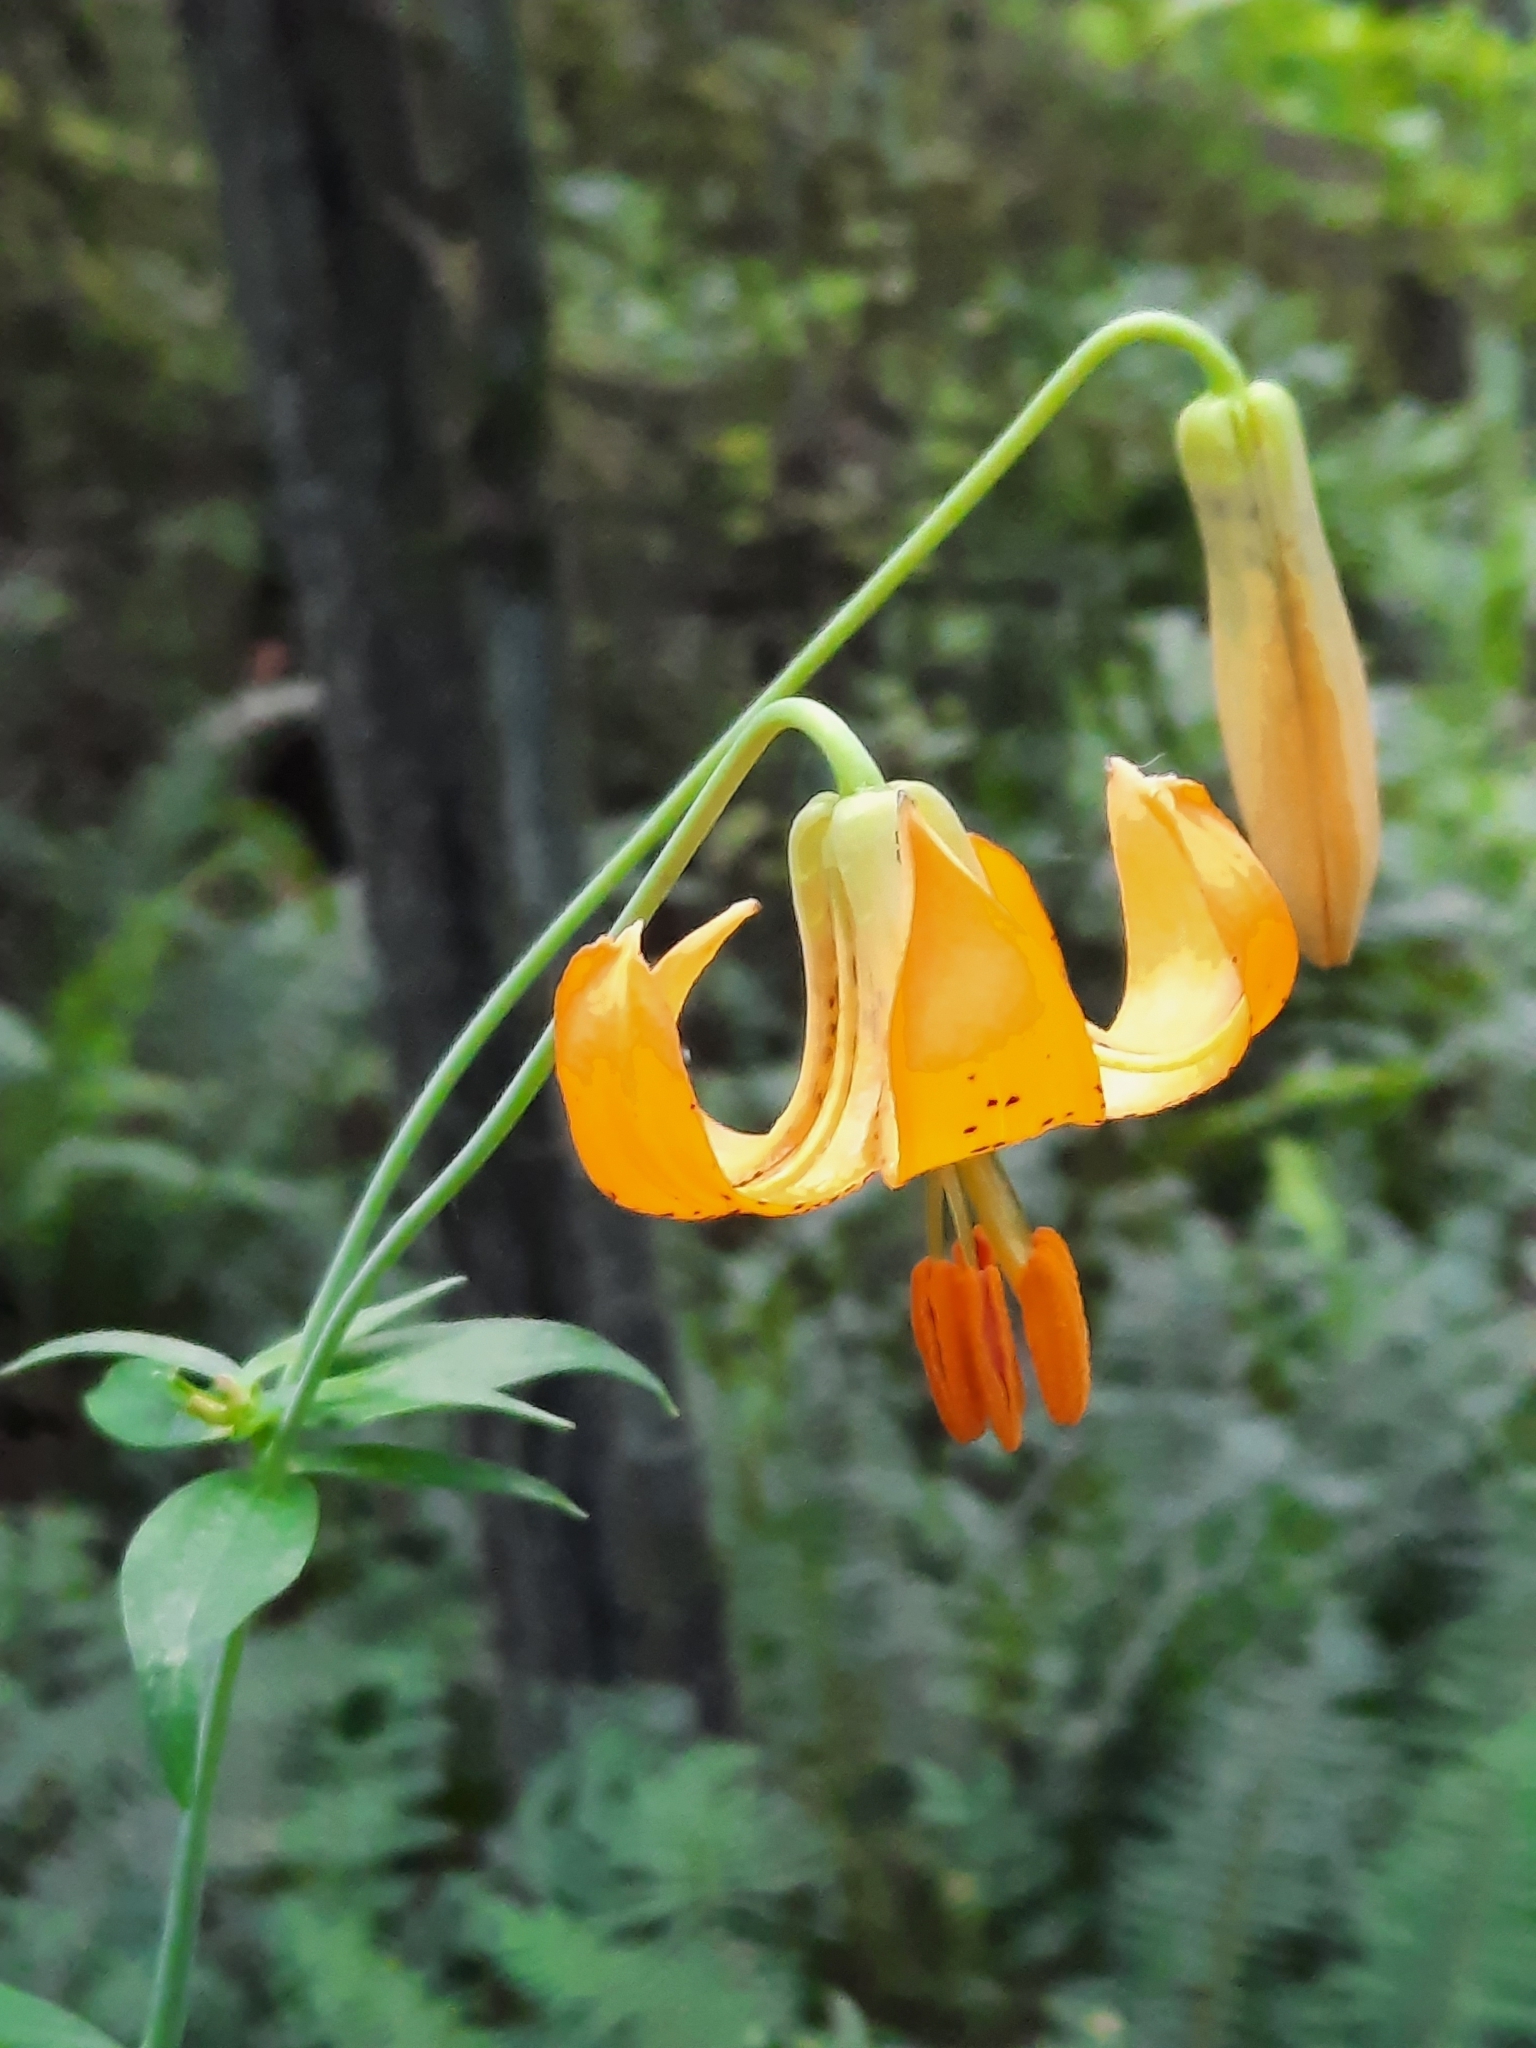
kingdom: Plantae
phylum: Tracheophyta
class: Liliopsida
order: Liliales
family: Liliaceae
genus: Lilium
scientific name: Lilium columbianum
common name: Columbia lily
